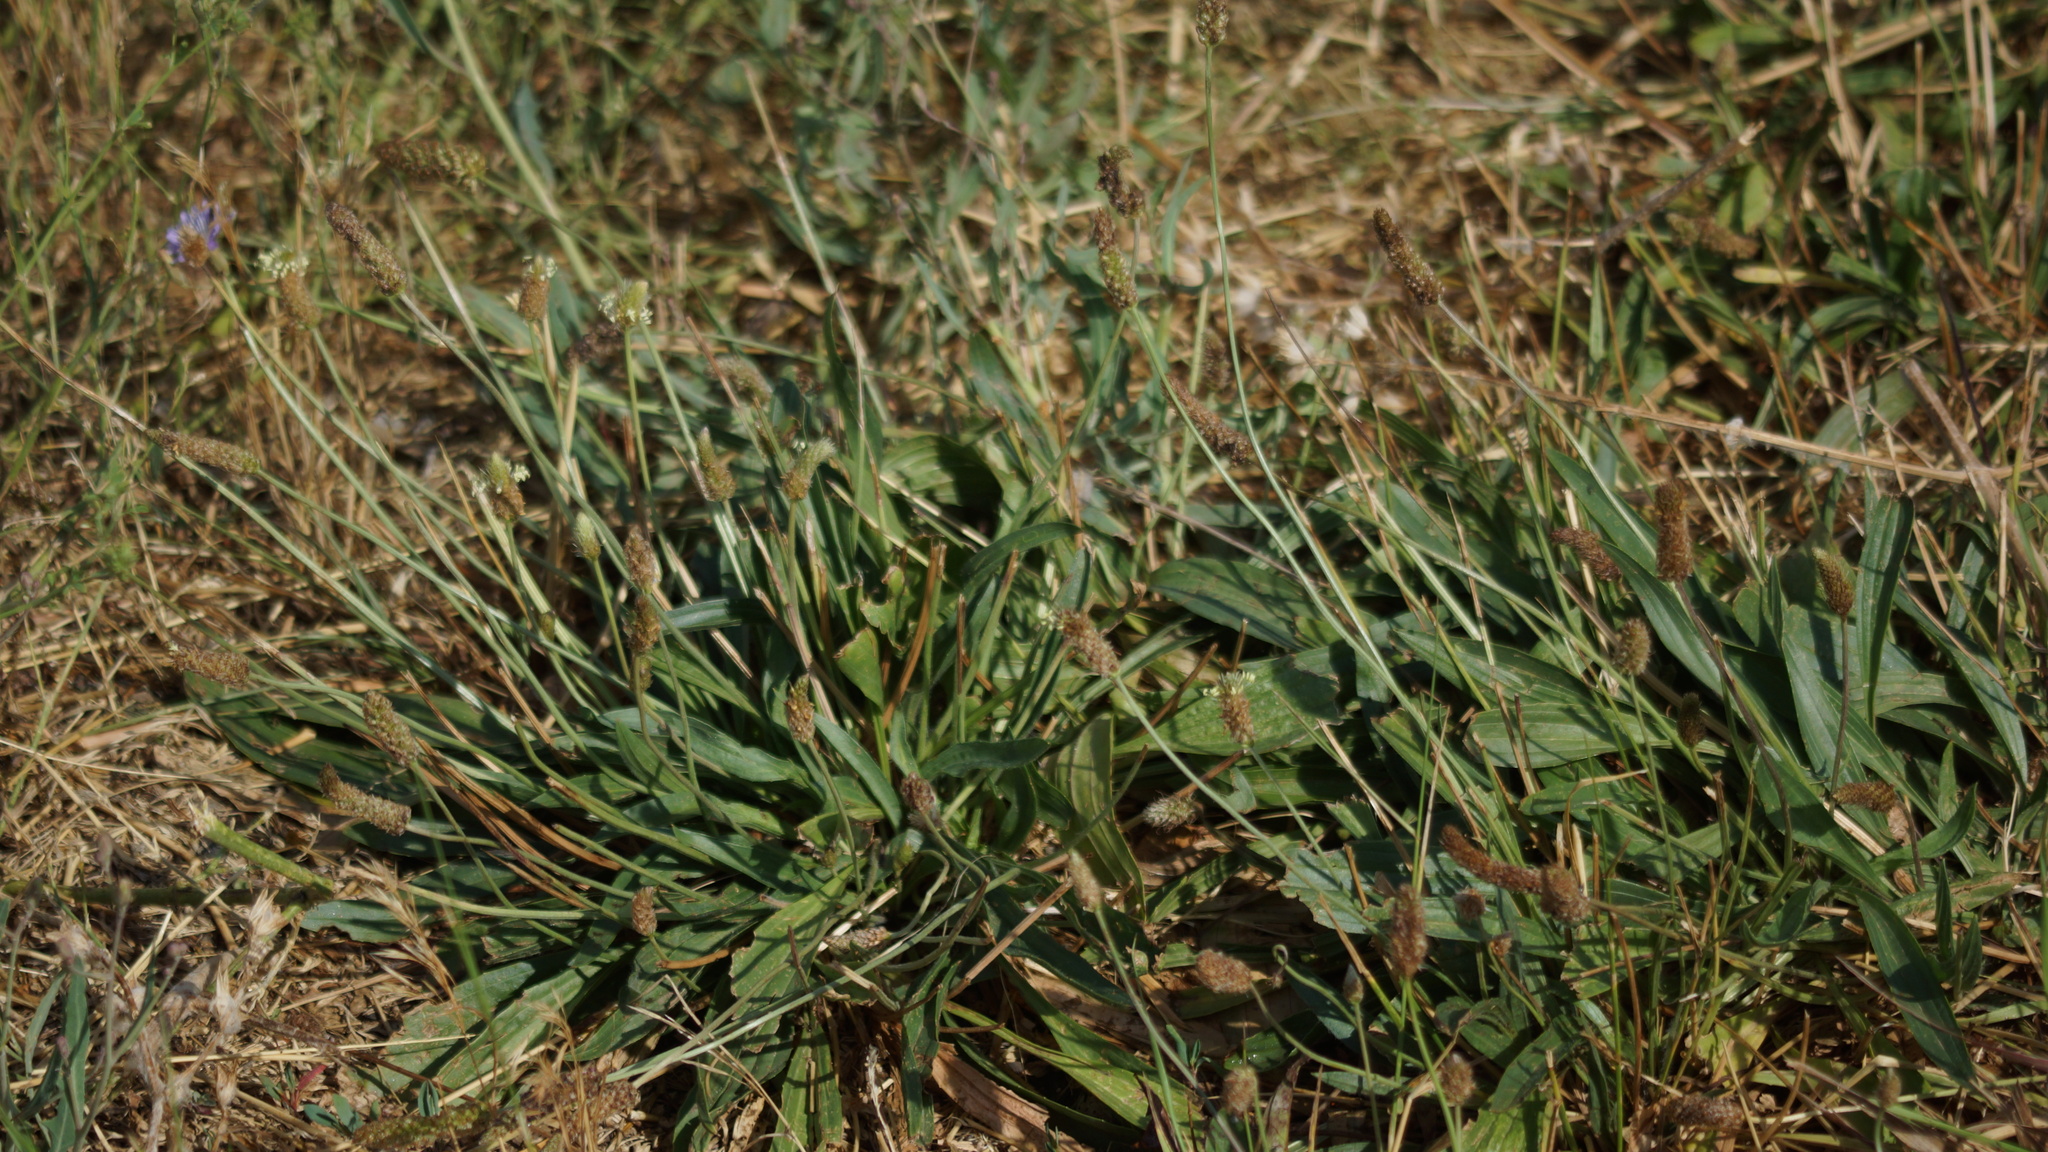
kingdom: Plantae
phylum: Tracheophyta
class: Magnoliopsida
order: Lamiales
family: Plantaginaceae
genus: Plantago
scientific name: Plantago lanceolata
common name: Ribwort plantain
